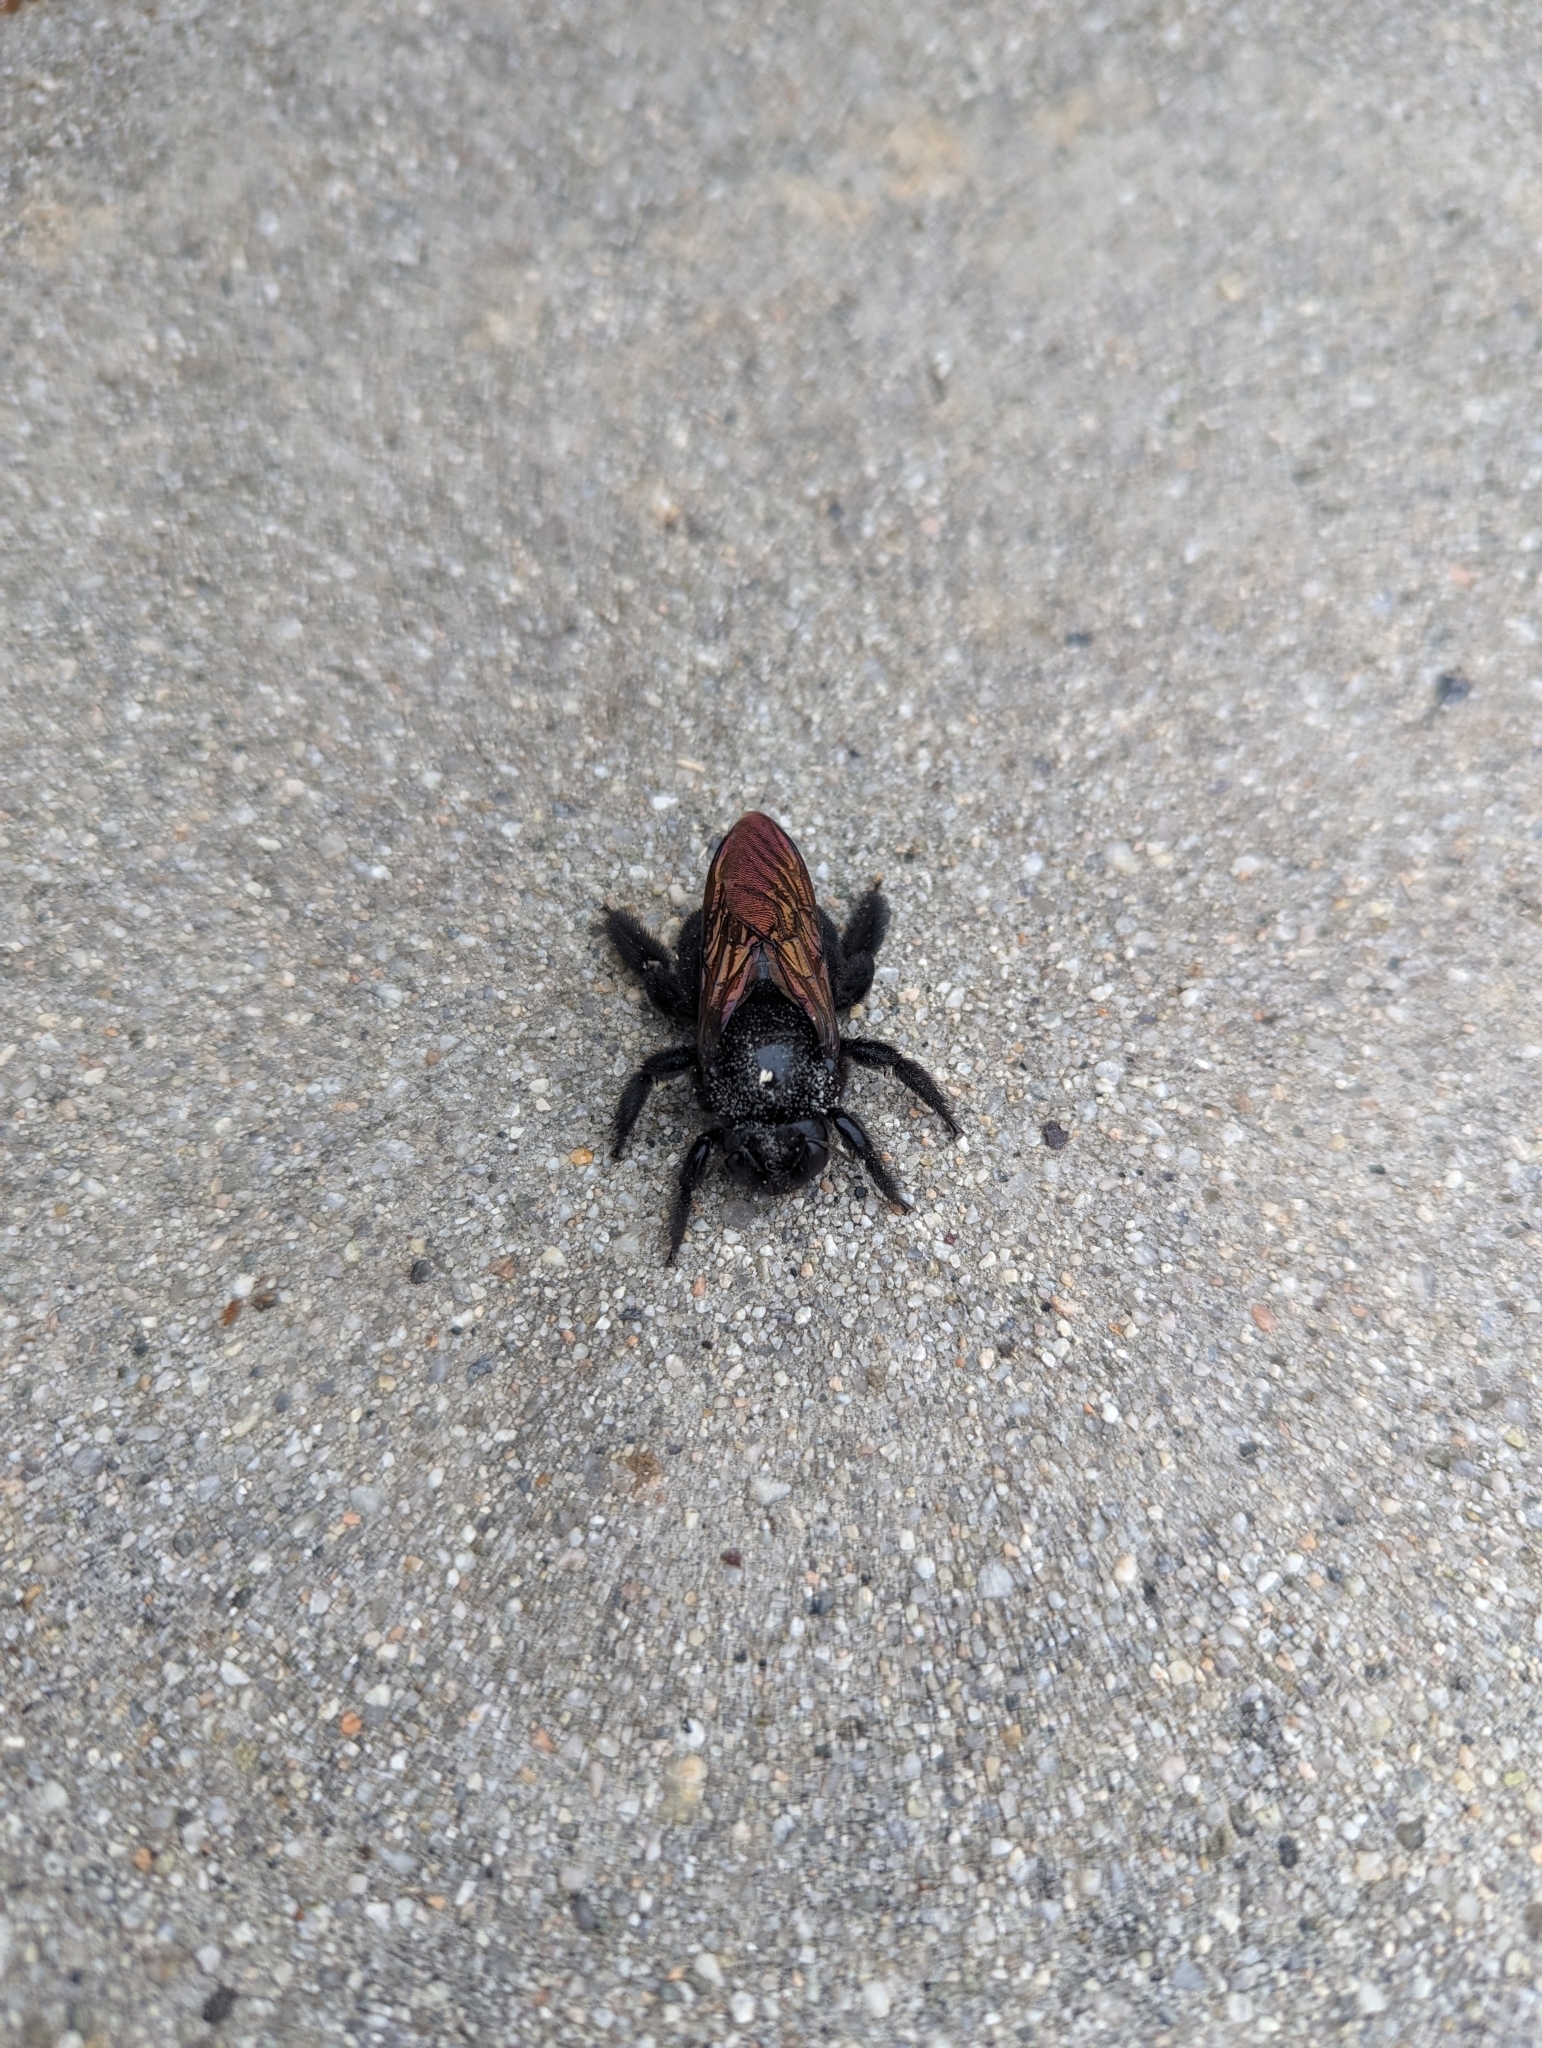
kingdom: Animalia
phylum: Arthropoda
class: Insecta
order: Hymenoptera
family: Apidae
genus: Xylocopa
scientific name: Xylocopa sonorina
